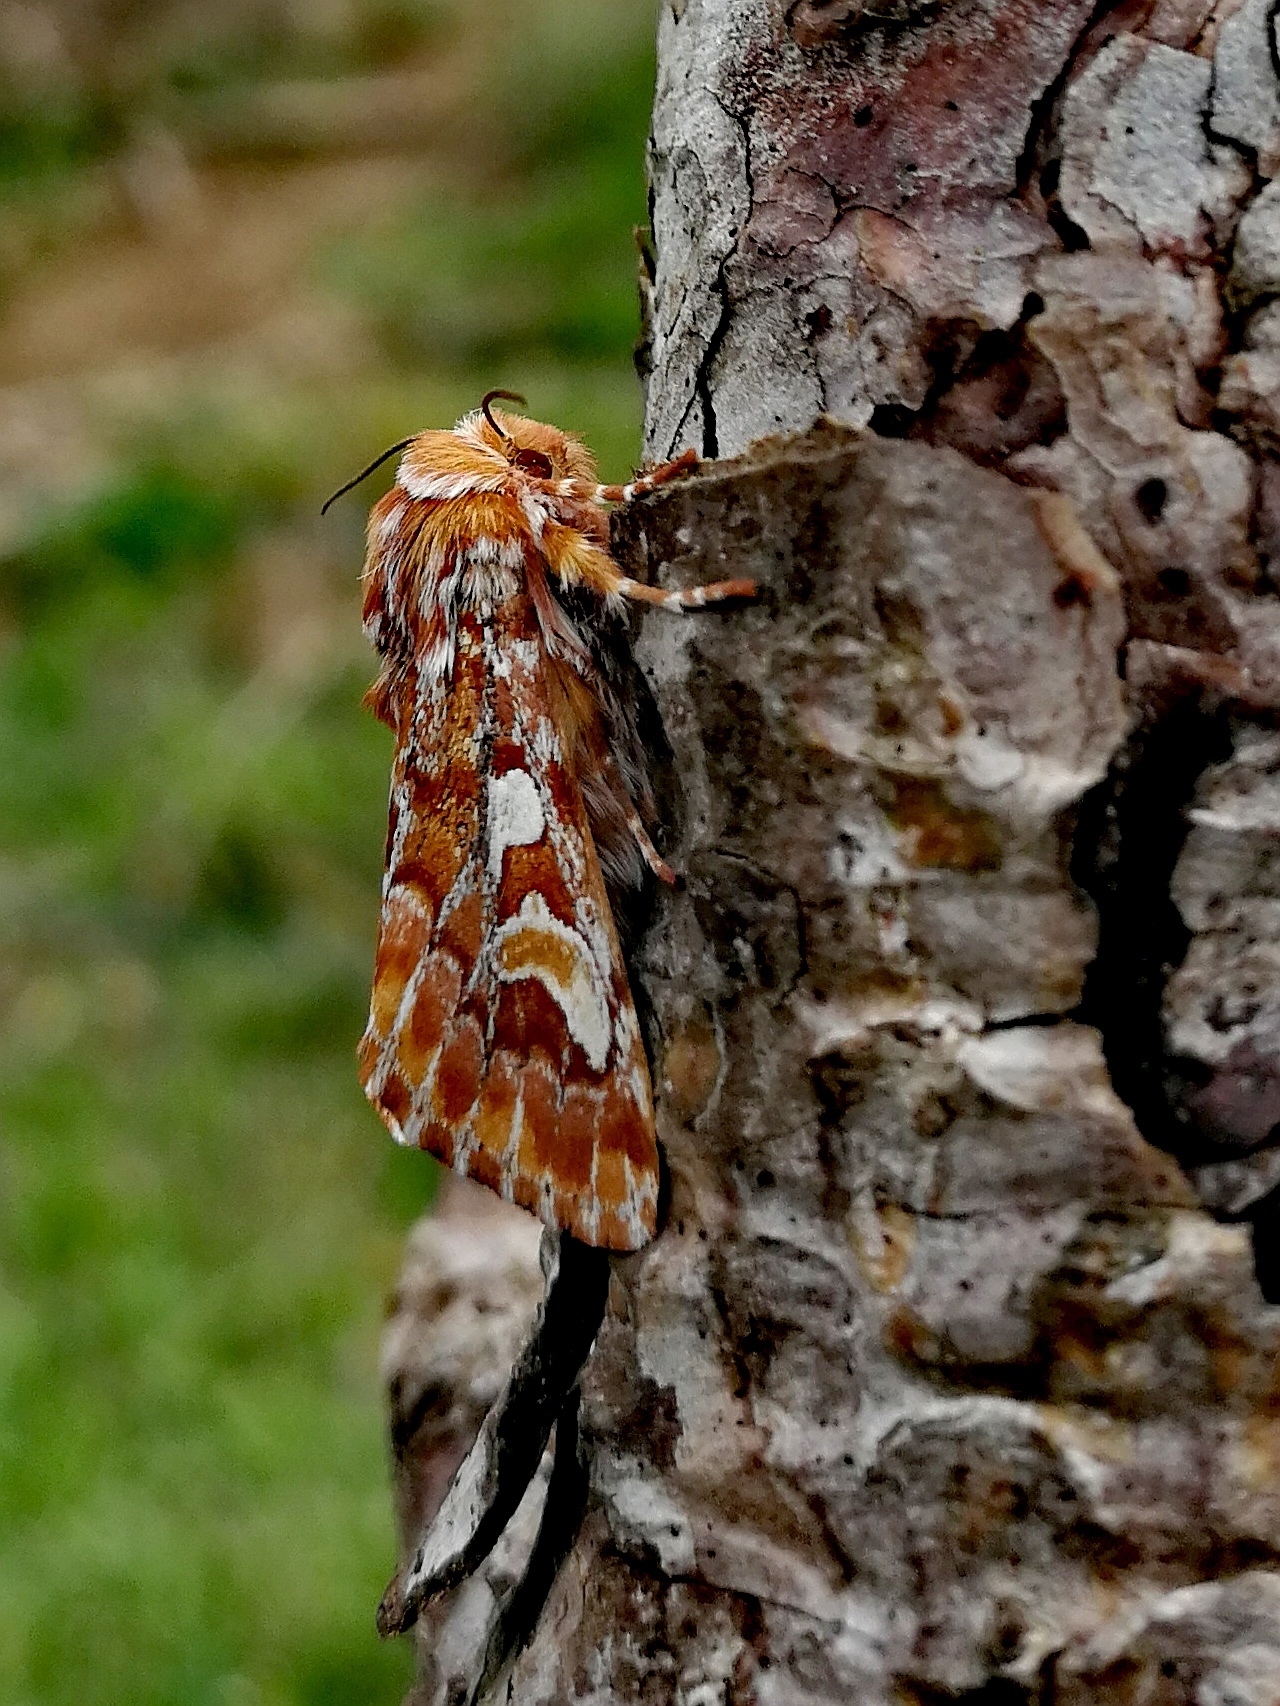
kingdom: Animalia
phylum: Arthropoda
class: Insecta
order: Lepidoptera
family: Noctuidae
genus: Panolis
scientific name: Panolis flammea
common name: Pine beauty
